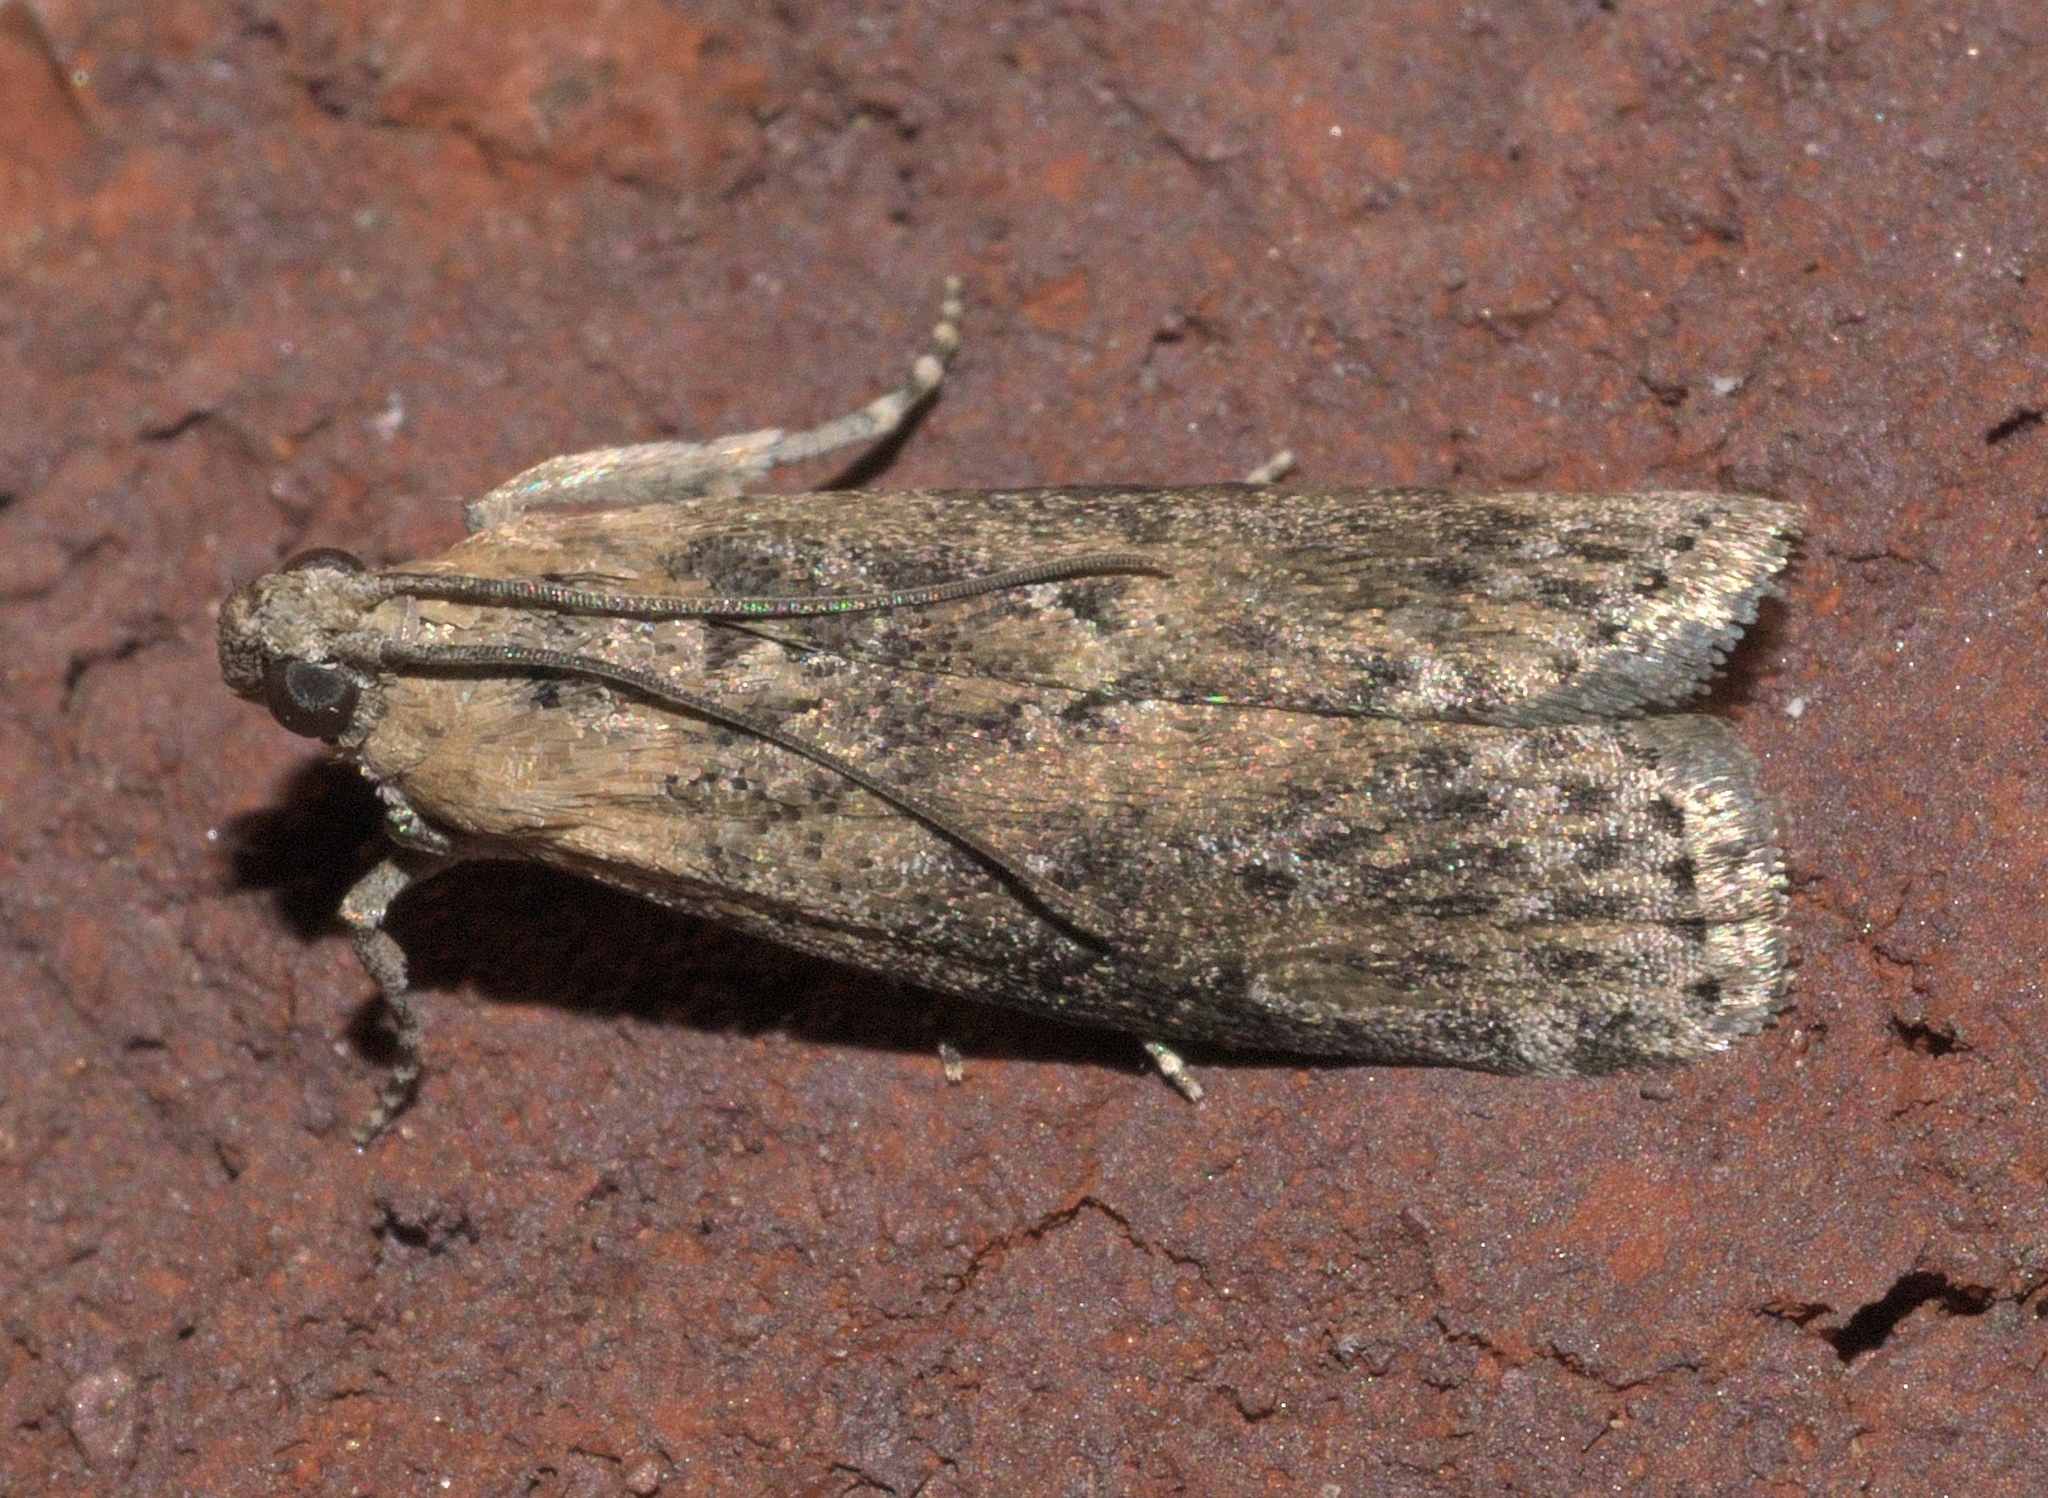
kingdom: Animalia
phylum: Arthropoda
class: Insecta
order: Lepidoptera
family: Pyralidae
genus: Sciota
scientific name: Sciota celtidella
